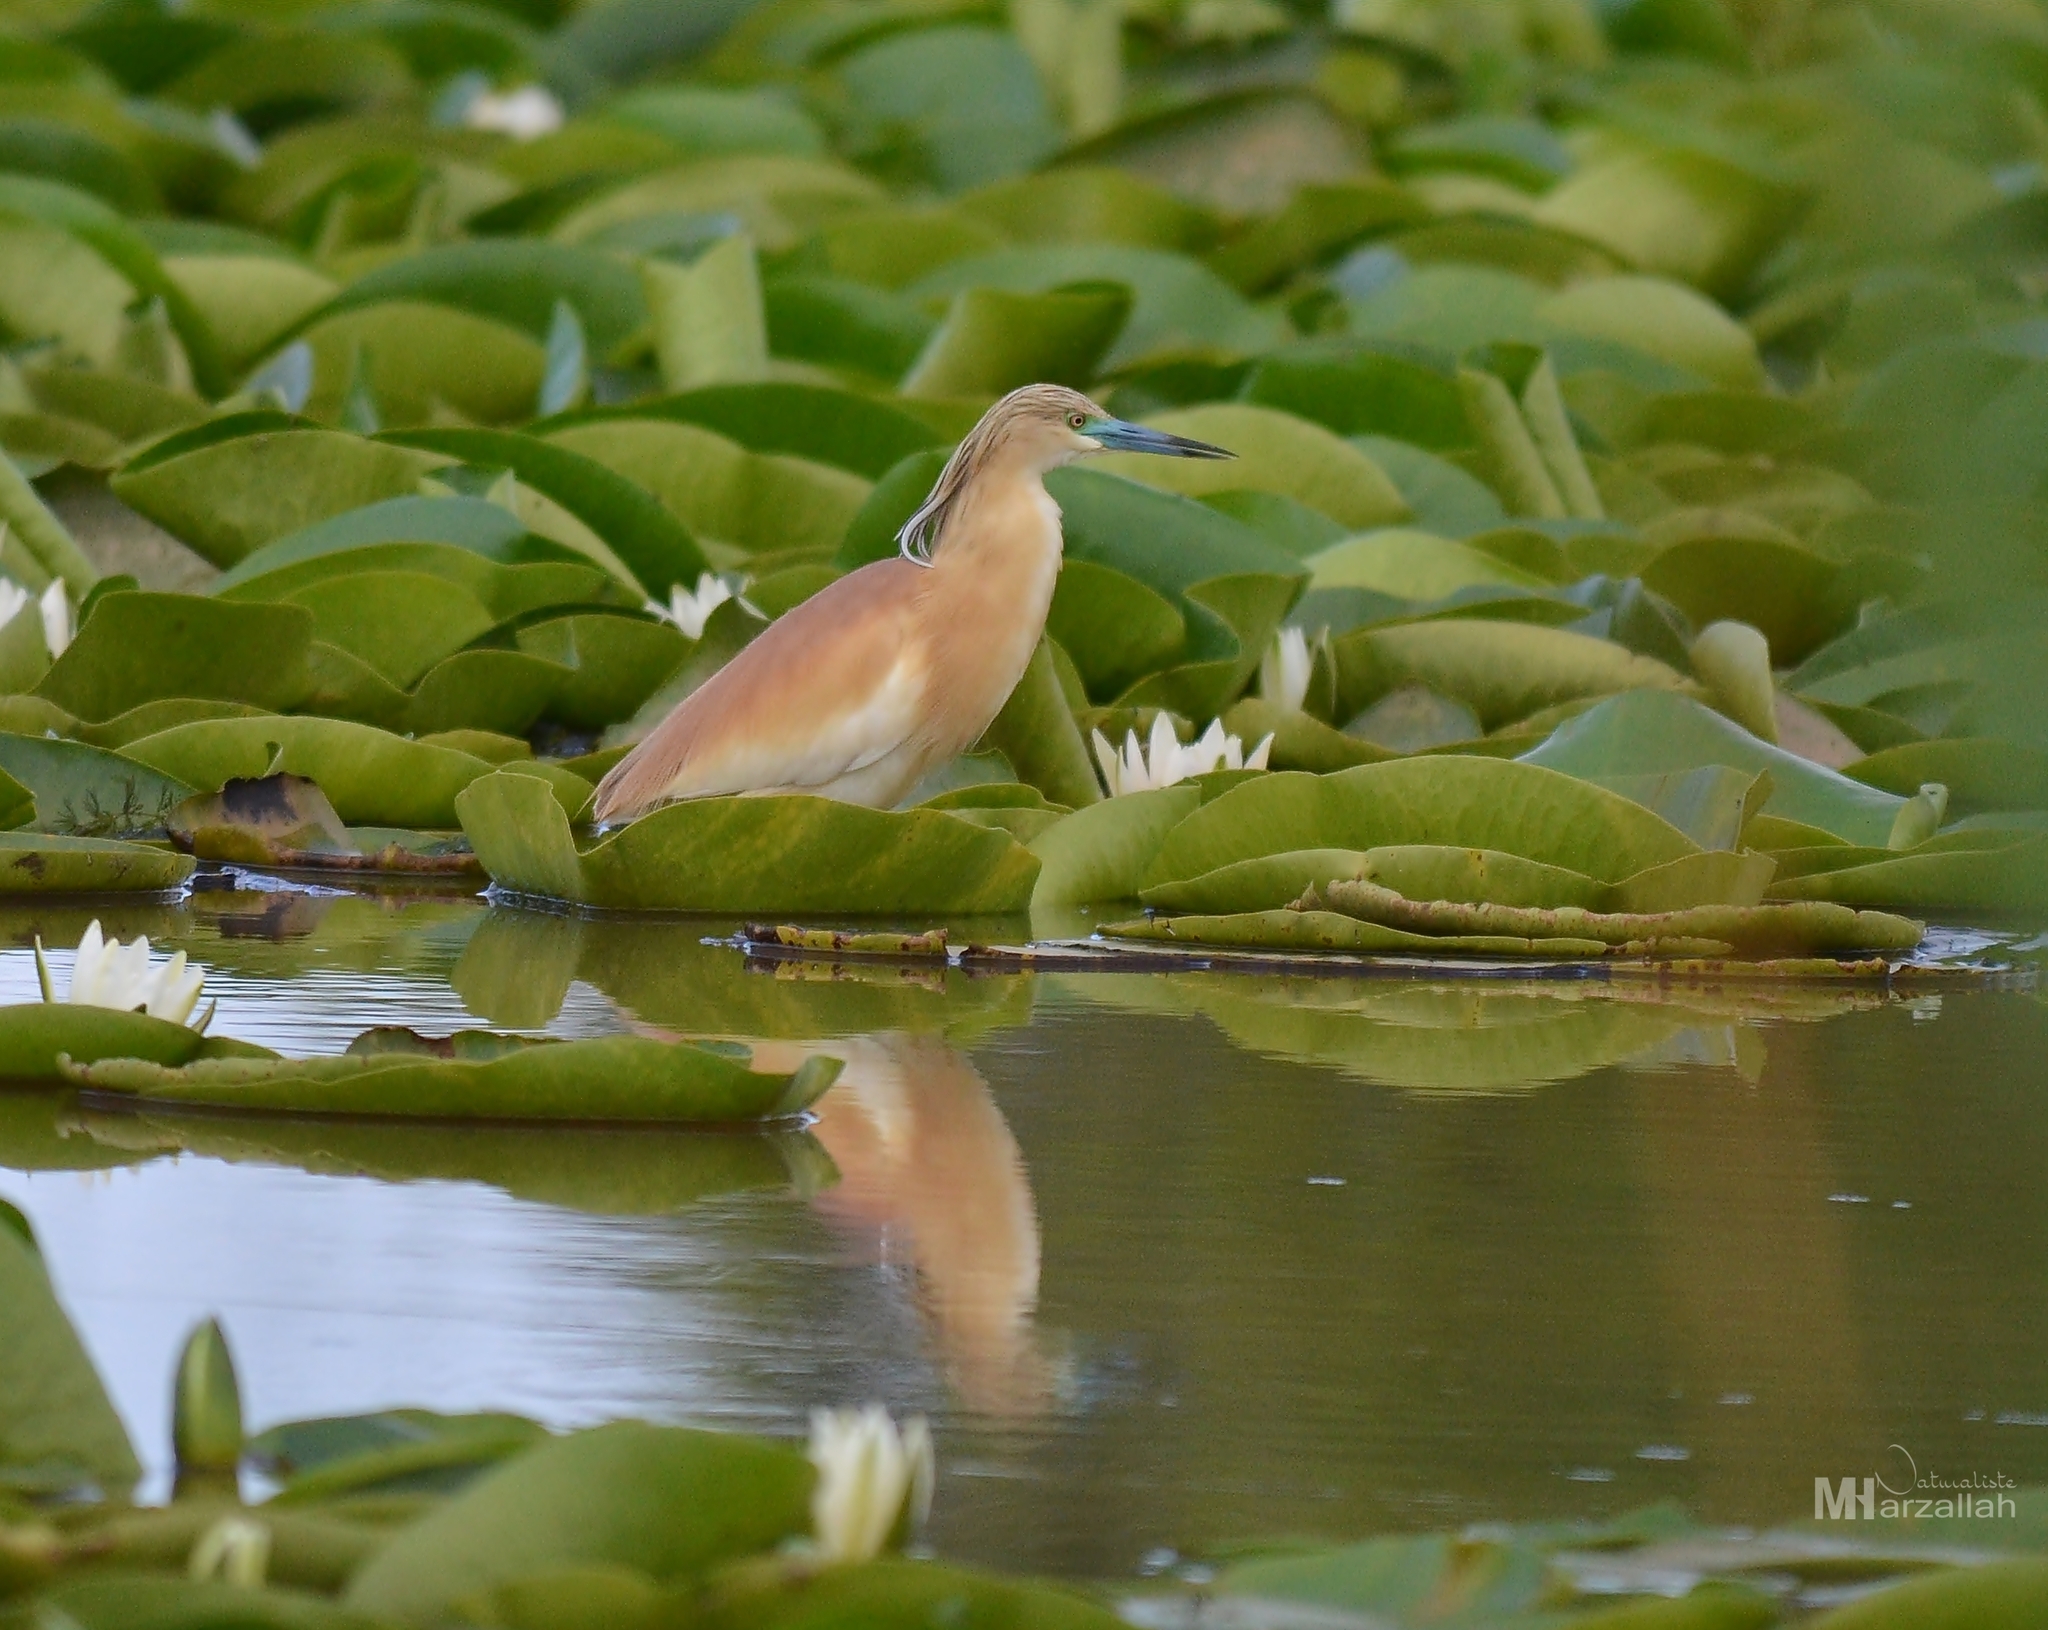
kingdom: Animalia
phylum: Chordata
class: Aves
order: Pelecaniformes
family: Ardeidae
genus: Ardeola
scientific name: Ardeola ralloides
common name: Squacco heron
